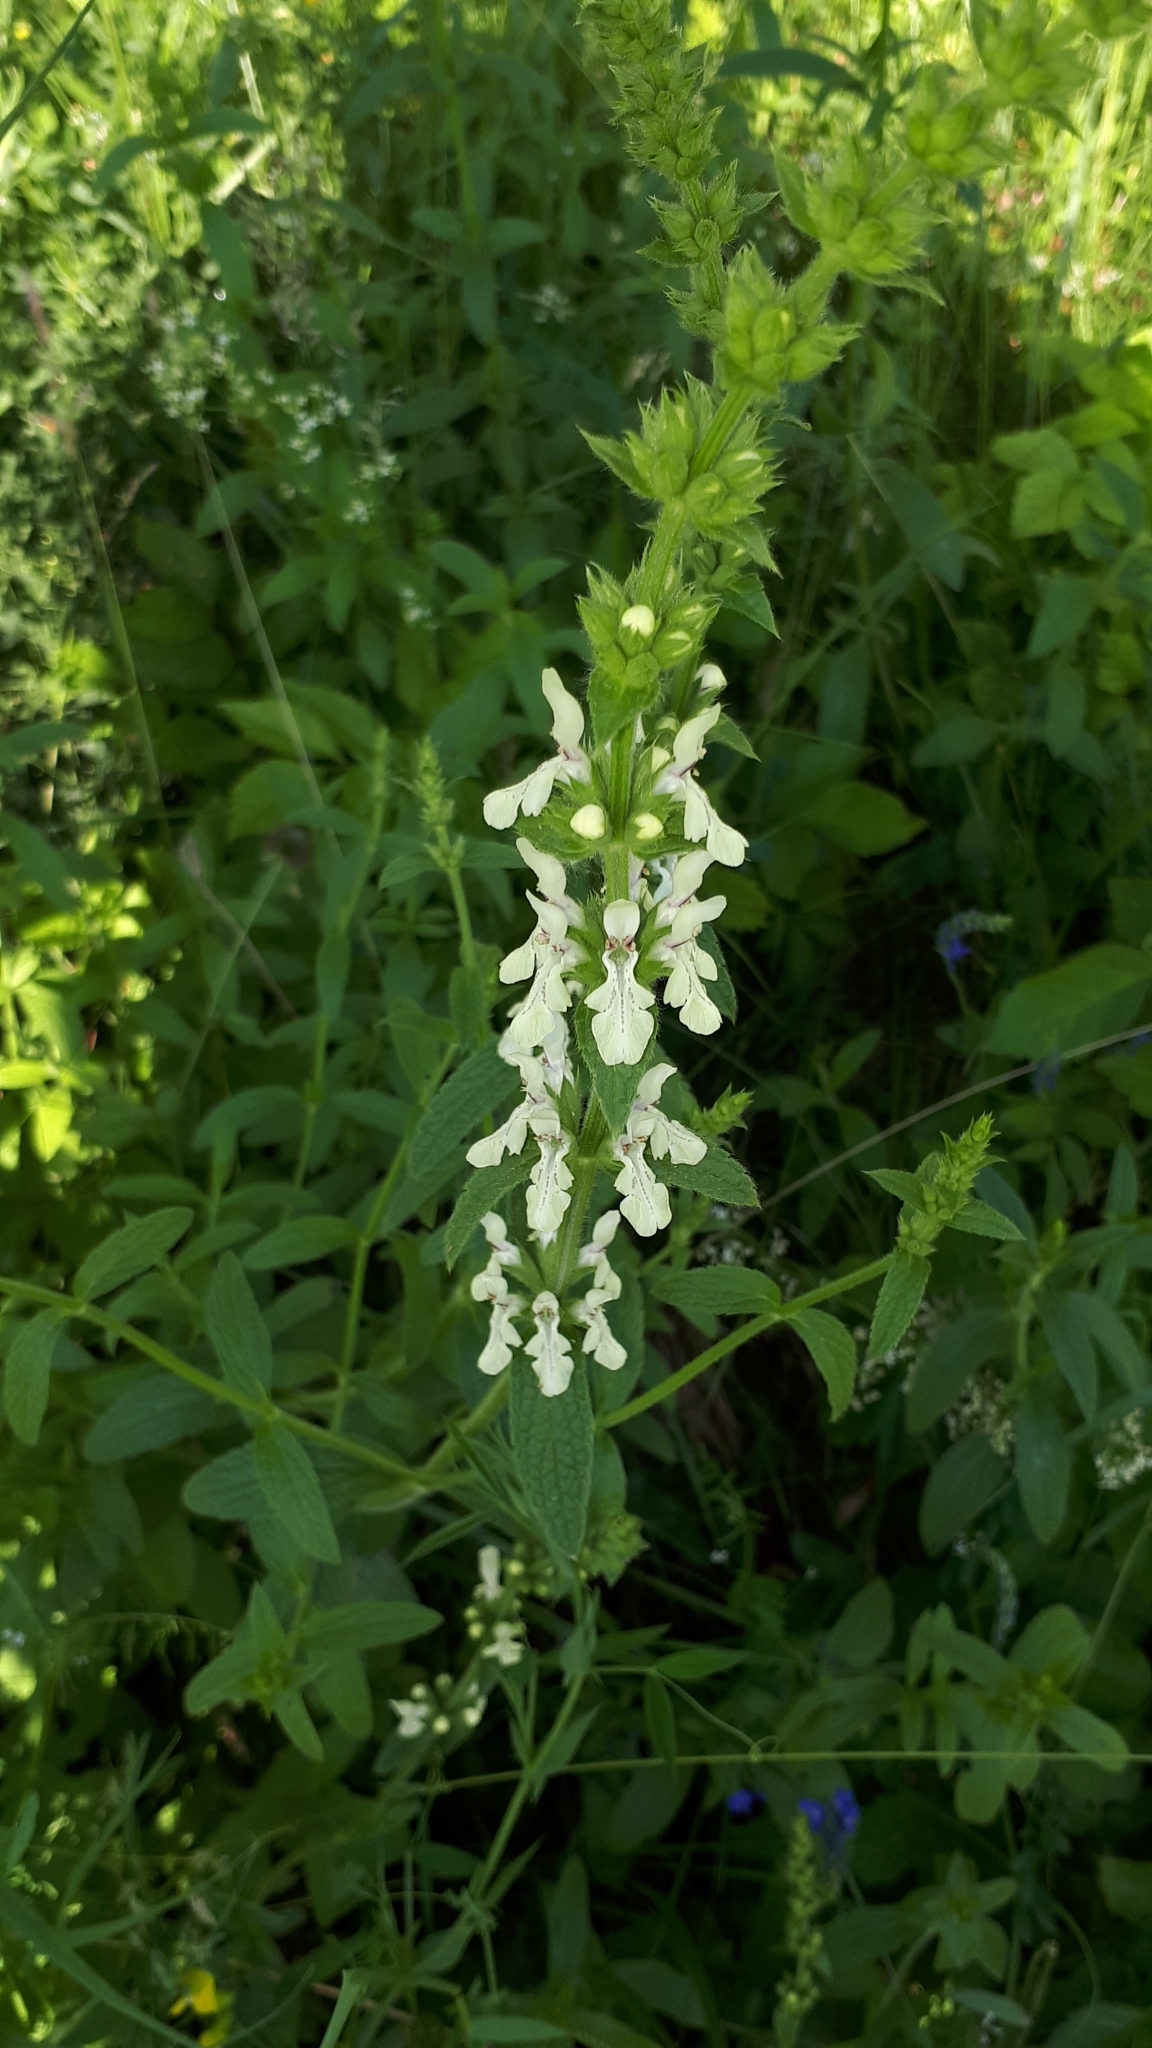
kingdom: Plantae
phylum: Tracheophyta
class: Magnoliopsida
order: Lamiales
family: Lamiaceae
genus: Stachys
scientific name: Stachys recta
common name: Perennial yellow-woundwort
